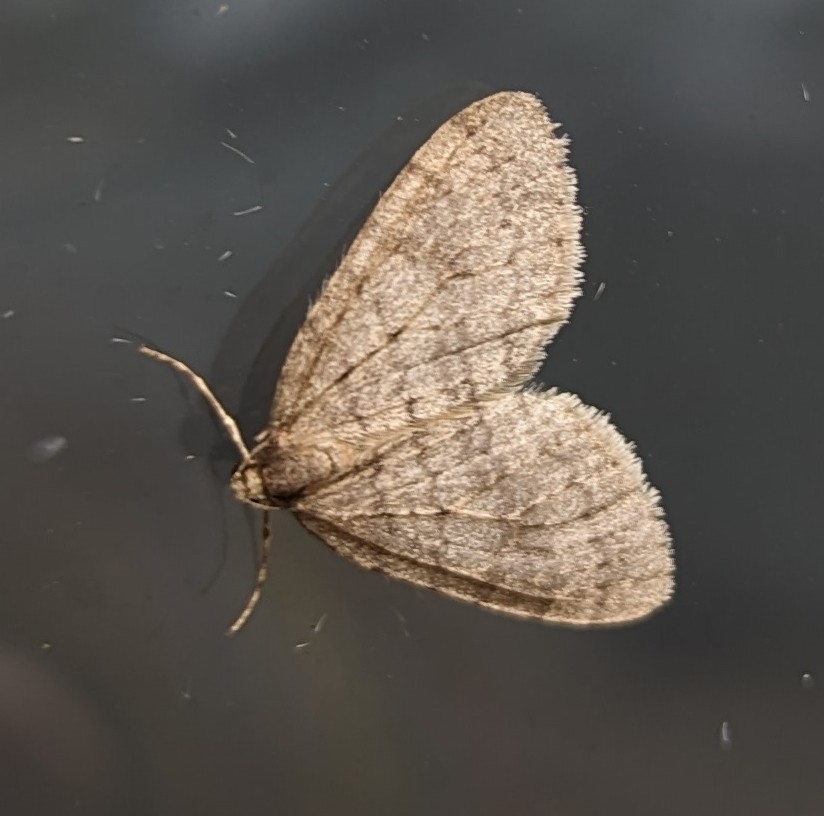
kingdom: Animalia
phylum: Arthropoda
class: Insecta
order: Lepidoptera
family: Geometridae
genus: Operophtera
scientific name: Operophtera brumata
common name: Winter moth
